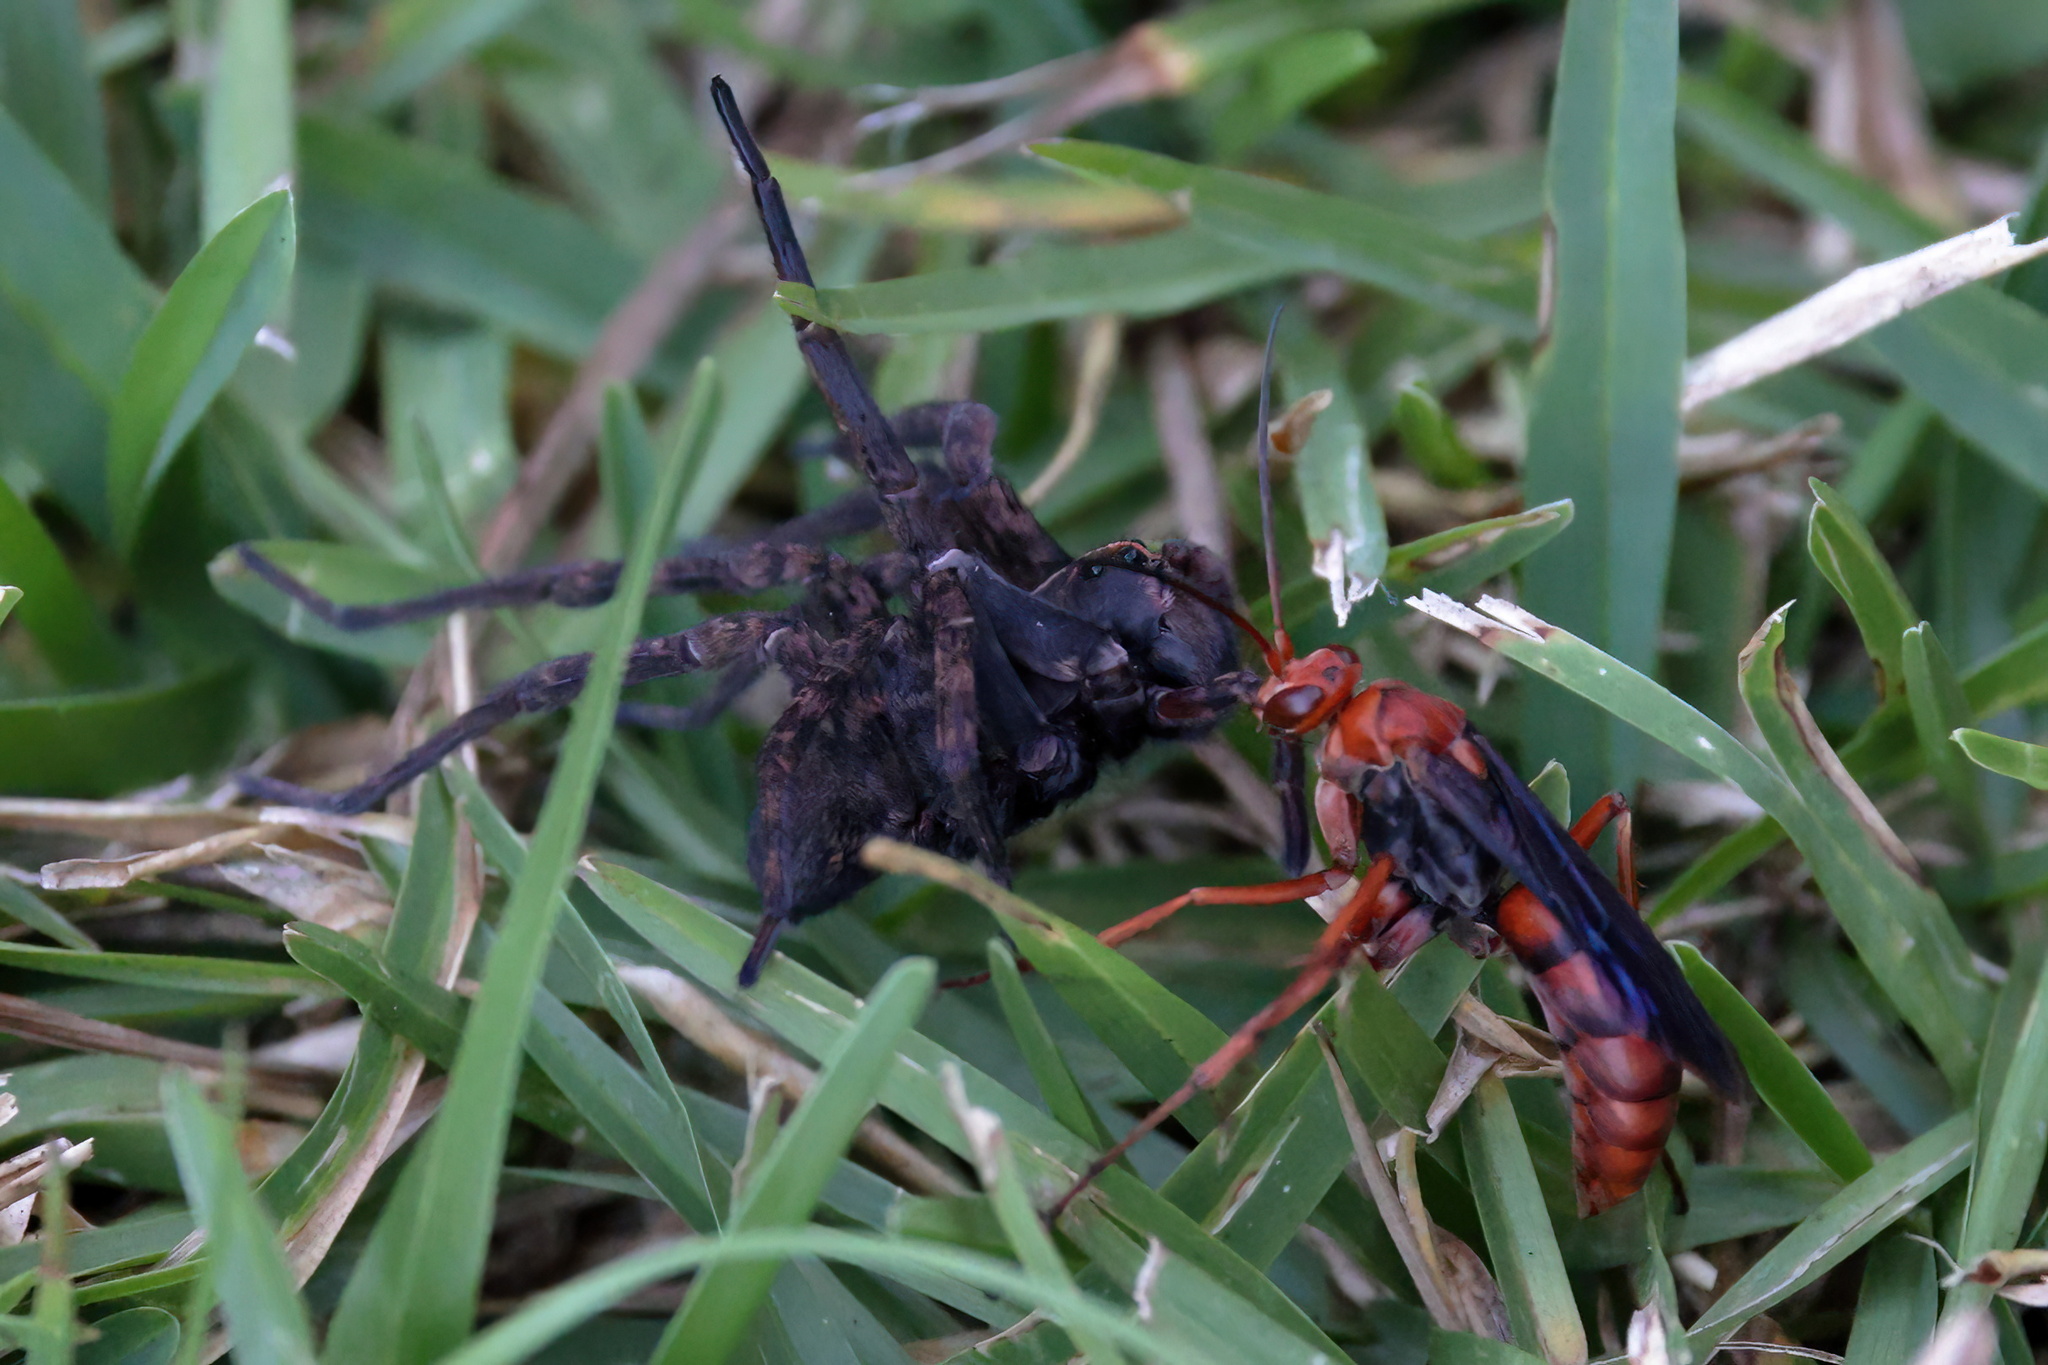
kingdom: Animalia
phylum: Arthropoda
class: Insecta
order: Hymenoptera
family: Pompilidae
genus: Tachypompilus
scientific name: Tachypompilus ferrugineus
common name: Rusty spider wasp
